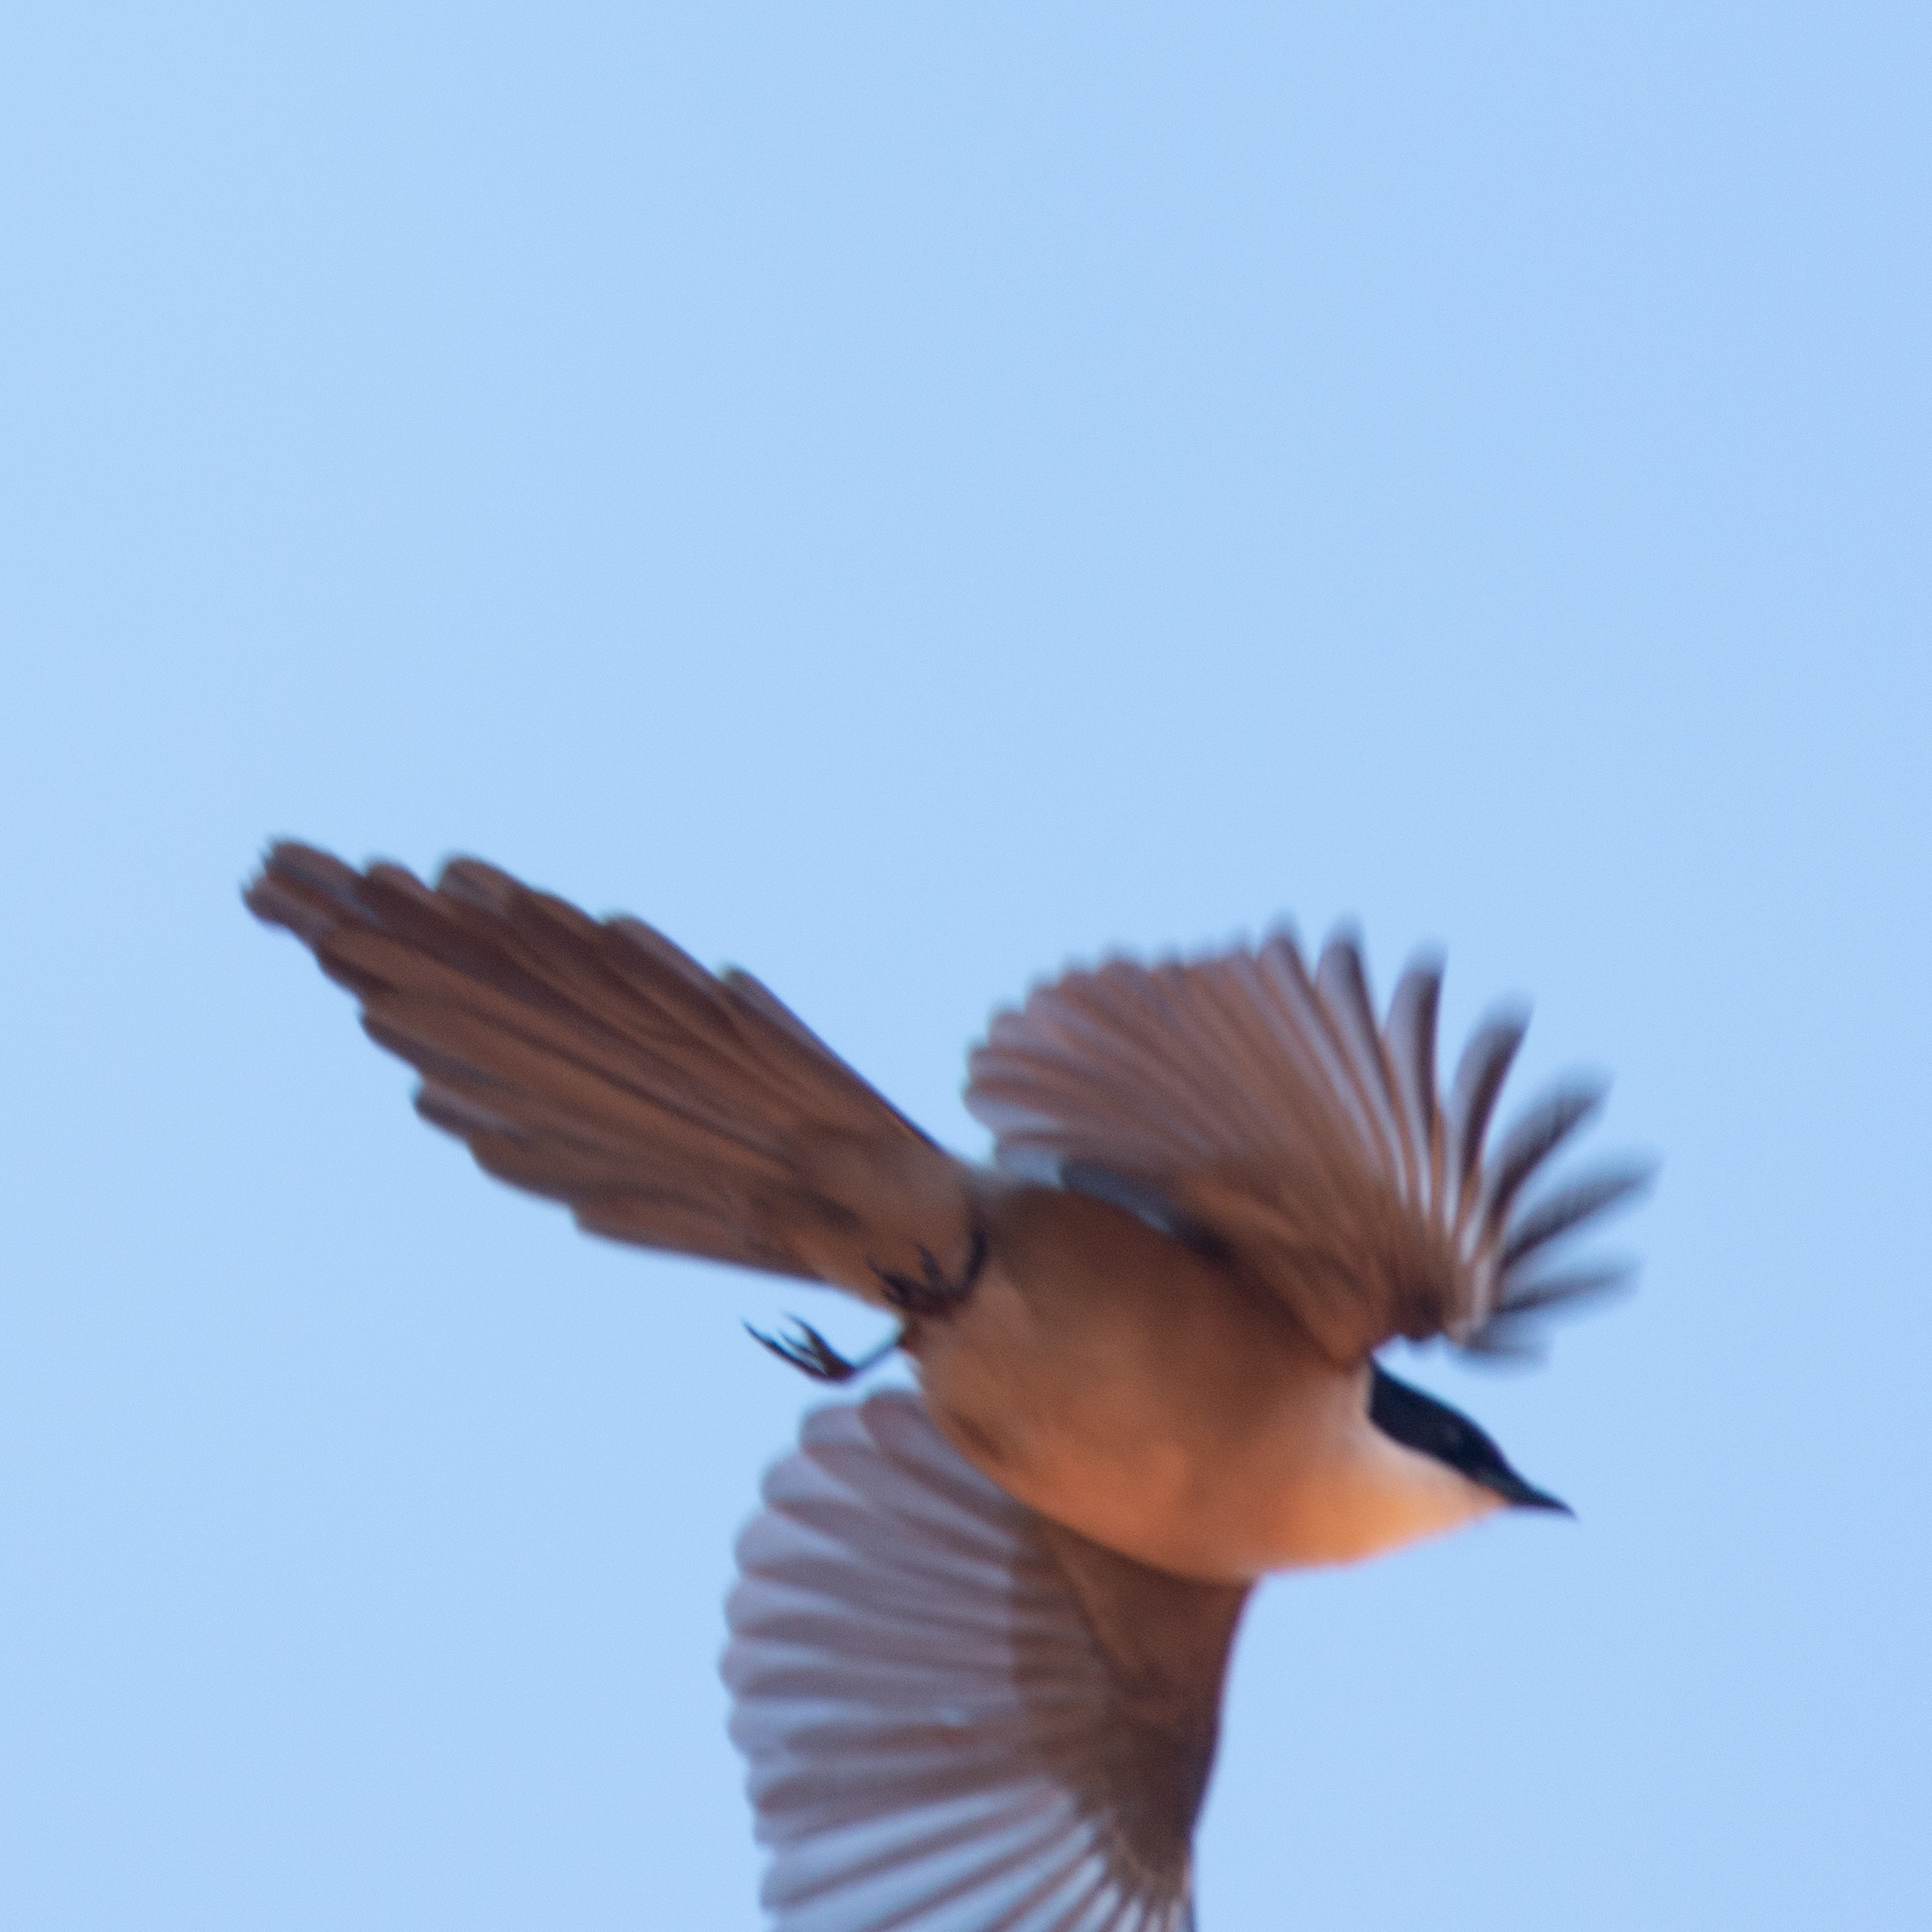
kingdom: Animalia
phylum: Chordata
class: Aves
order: Passeriformes
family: Corvidae
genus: Cyanopica
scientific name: Cyanopica cooki
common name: Iberian magpie
